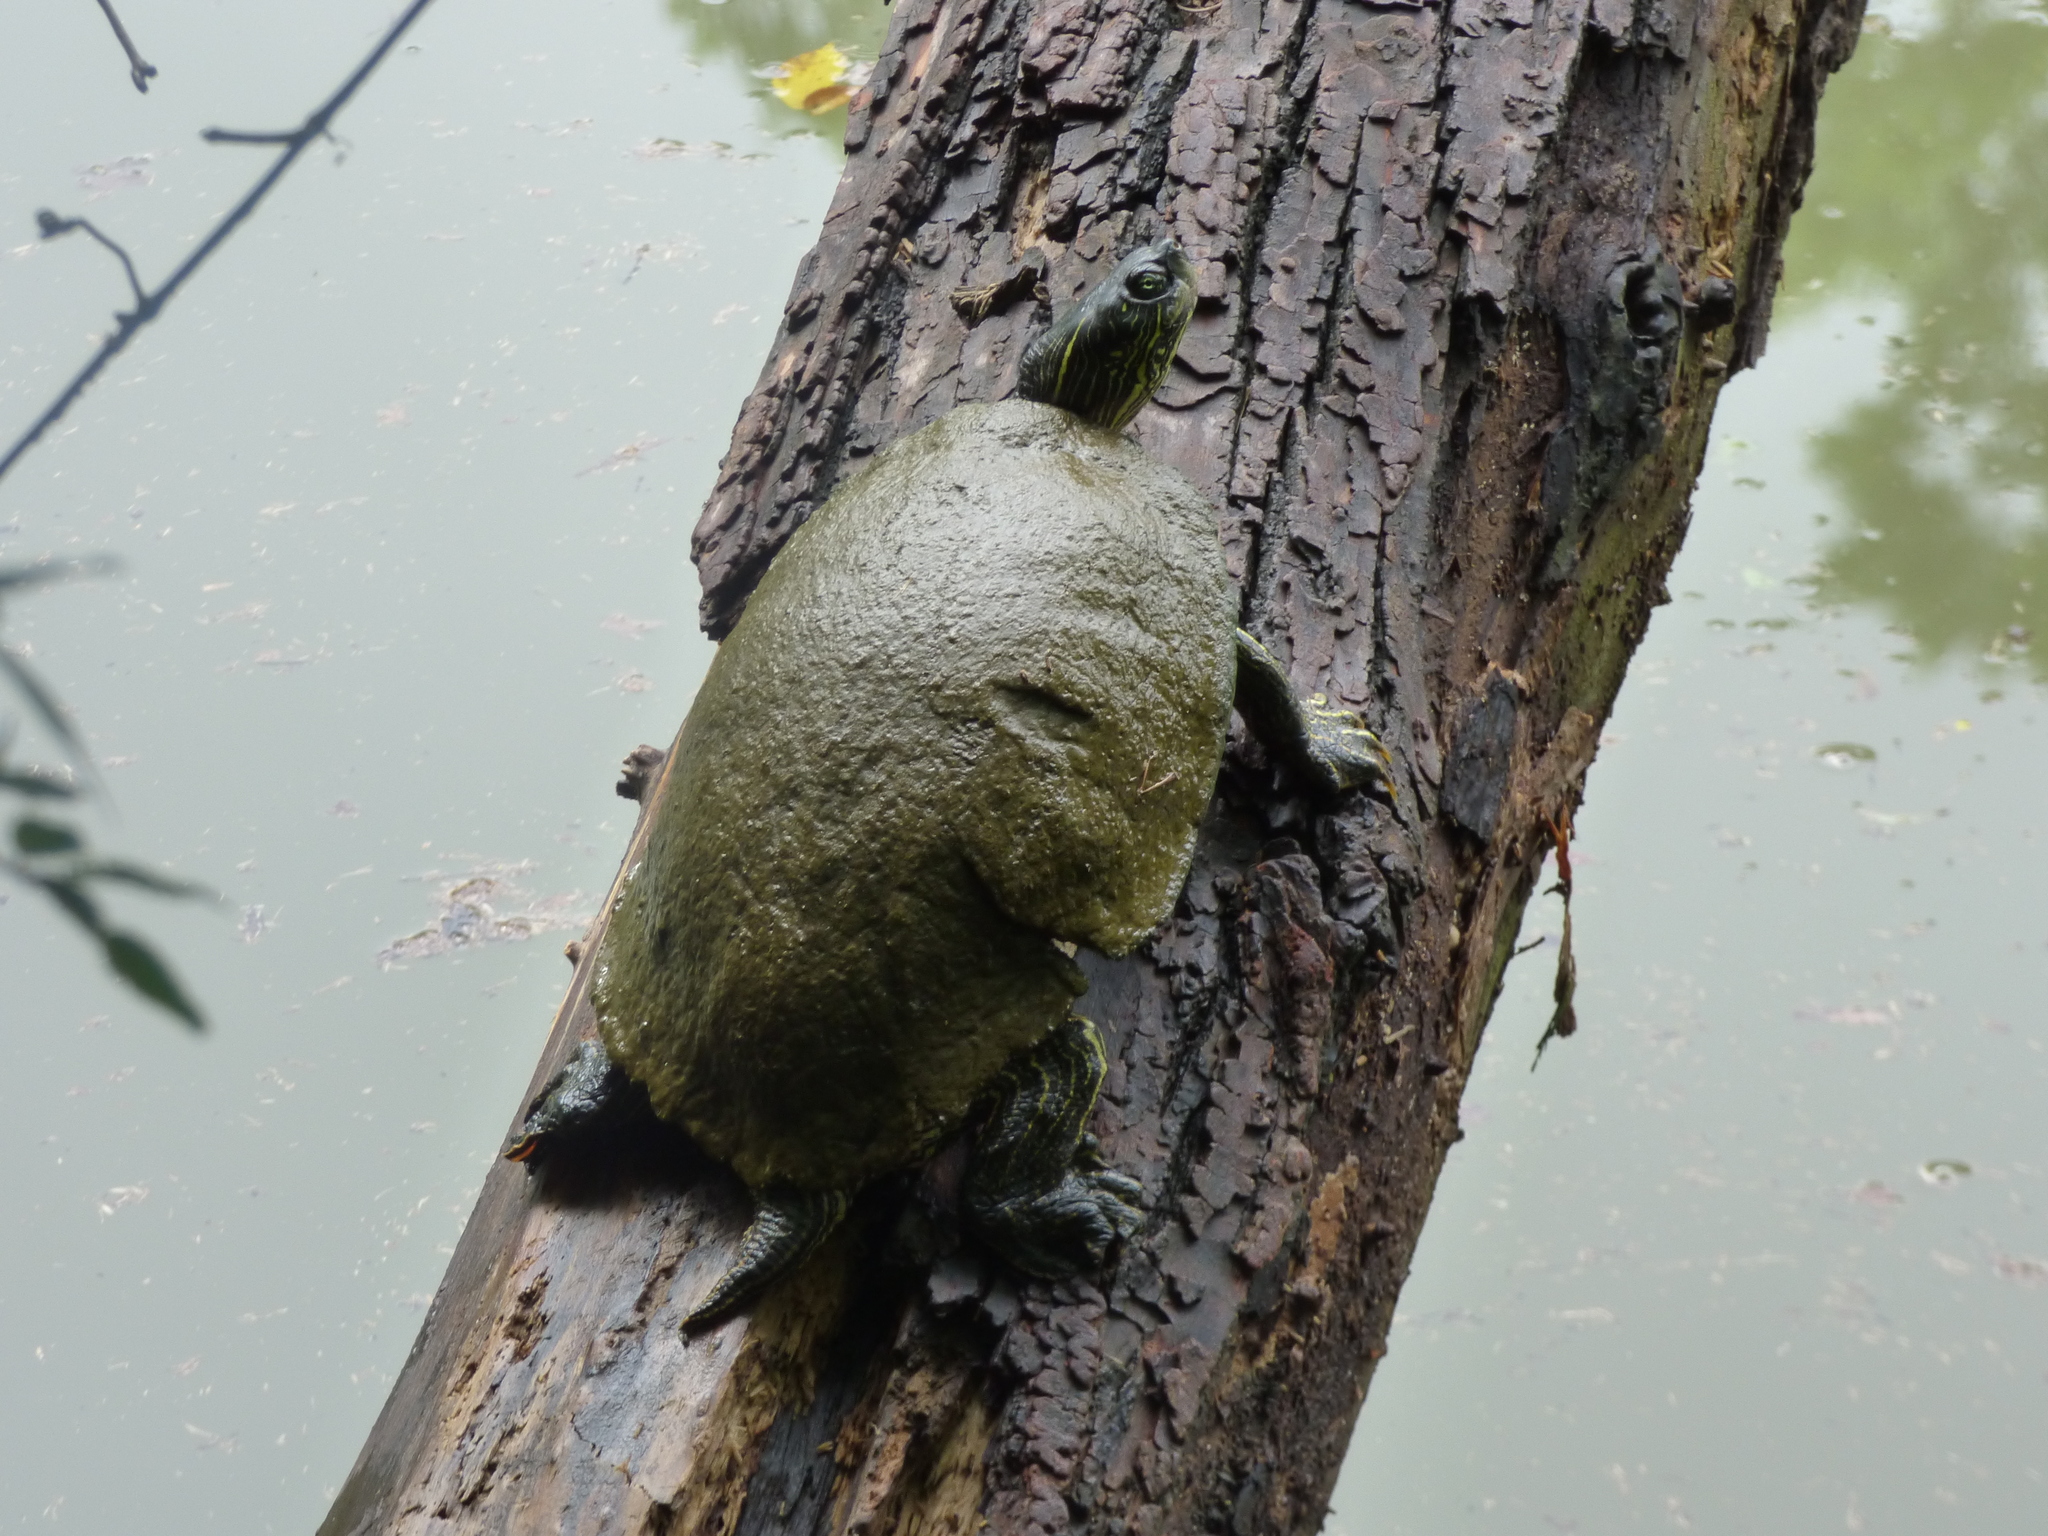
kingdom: Animalia
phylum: Chordata
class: Testudines
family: Emydidae
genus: Pseudemys
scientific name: Pseudemys texana
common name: Texas river cooter
